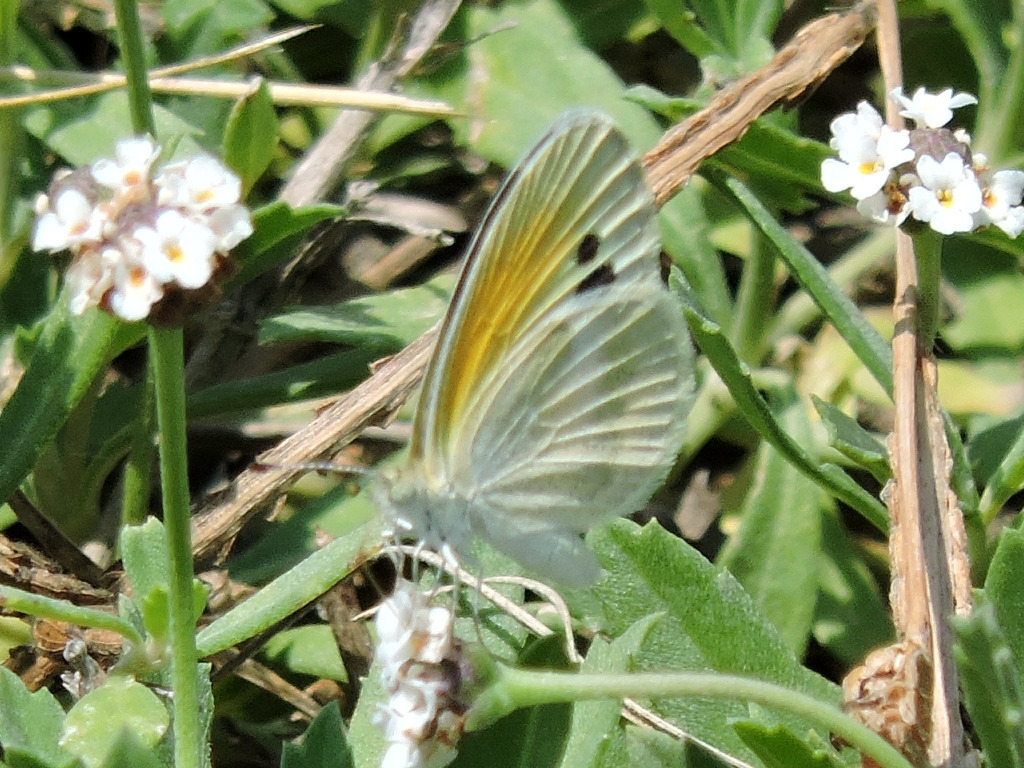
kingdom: Animalia
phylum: Arthropoda
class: Insecta
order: Lepidoptera
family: Pieridae
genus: Nathalis
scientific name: Nathalis iole
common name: Dainty sulphur
